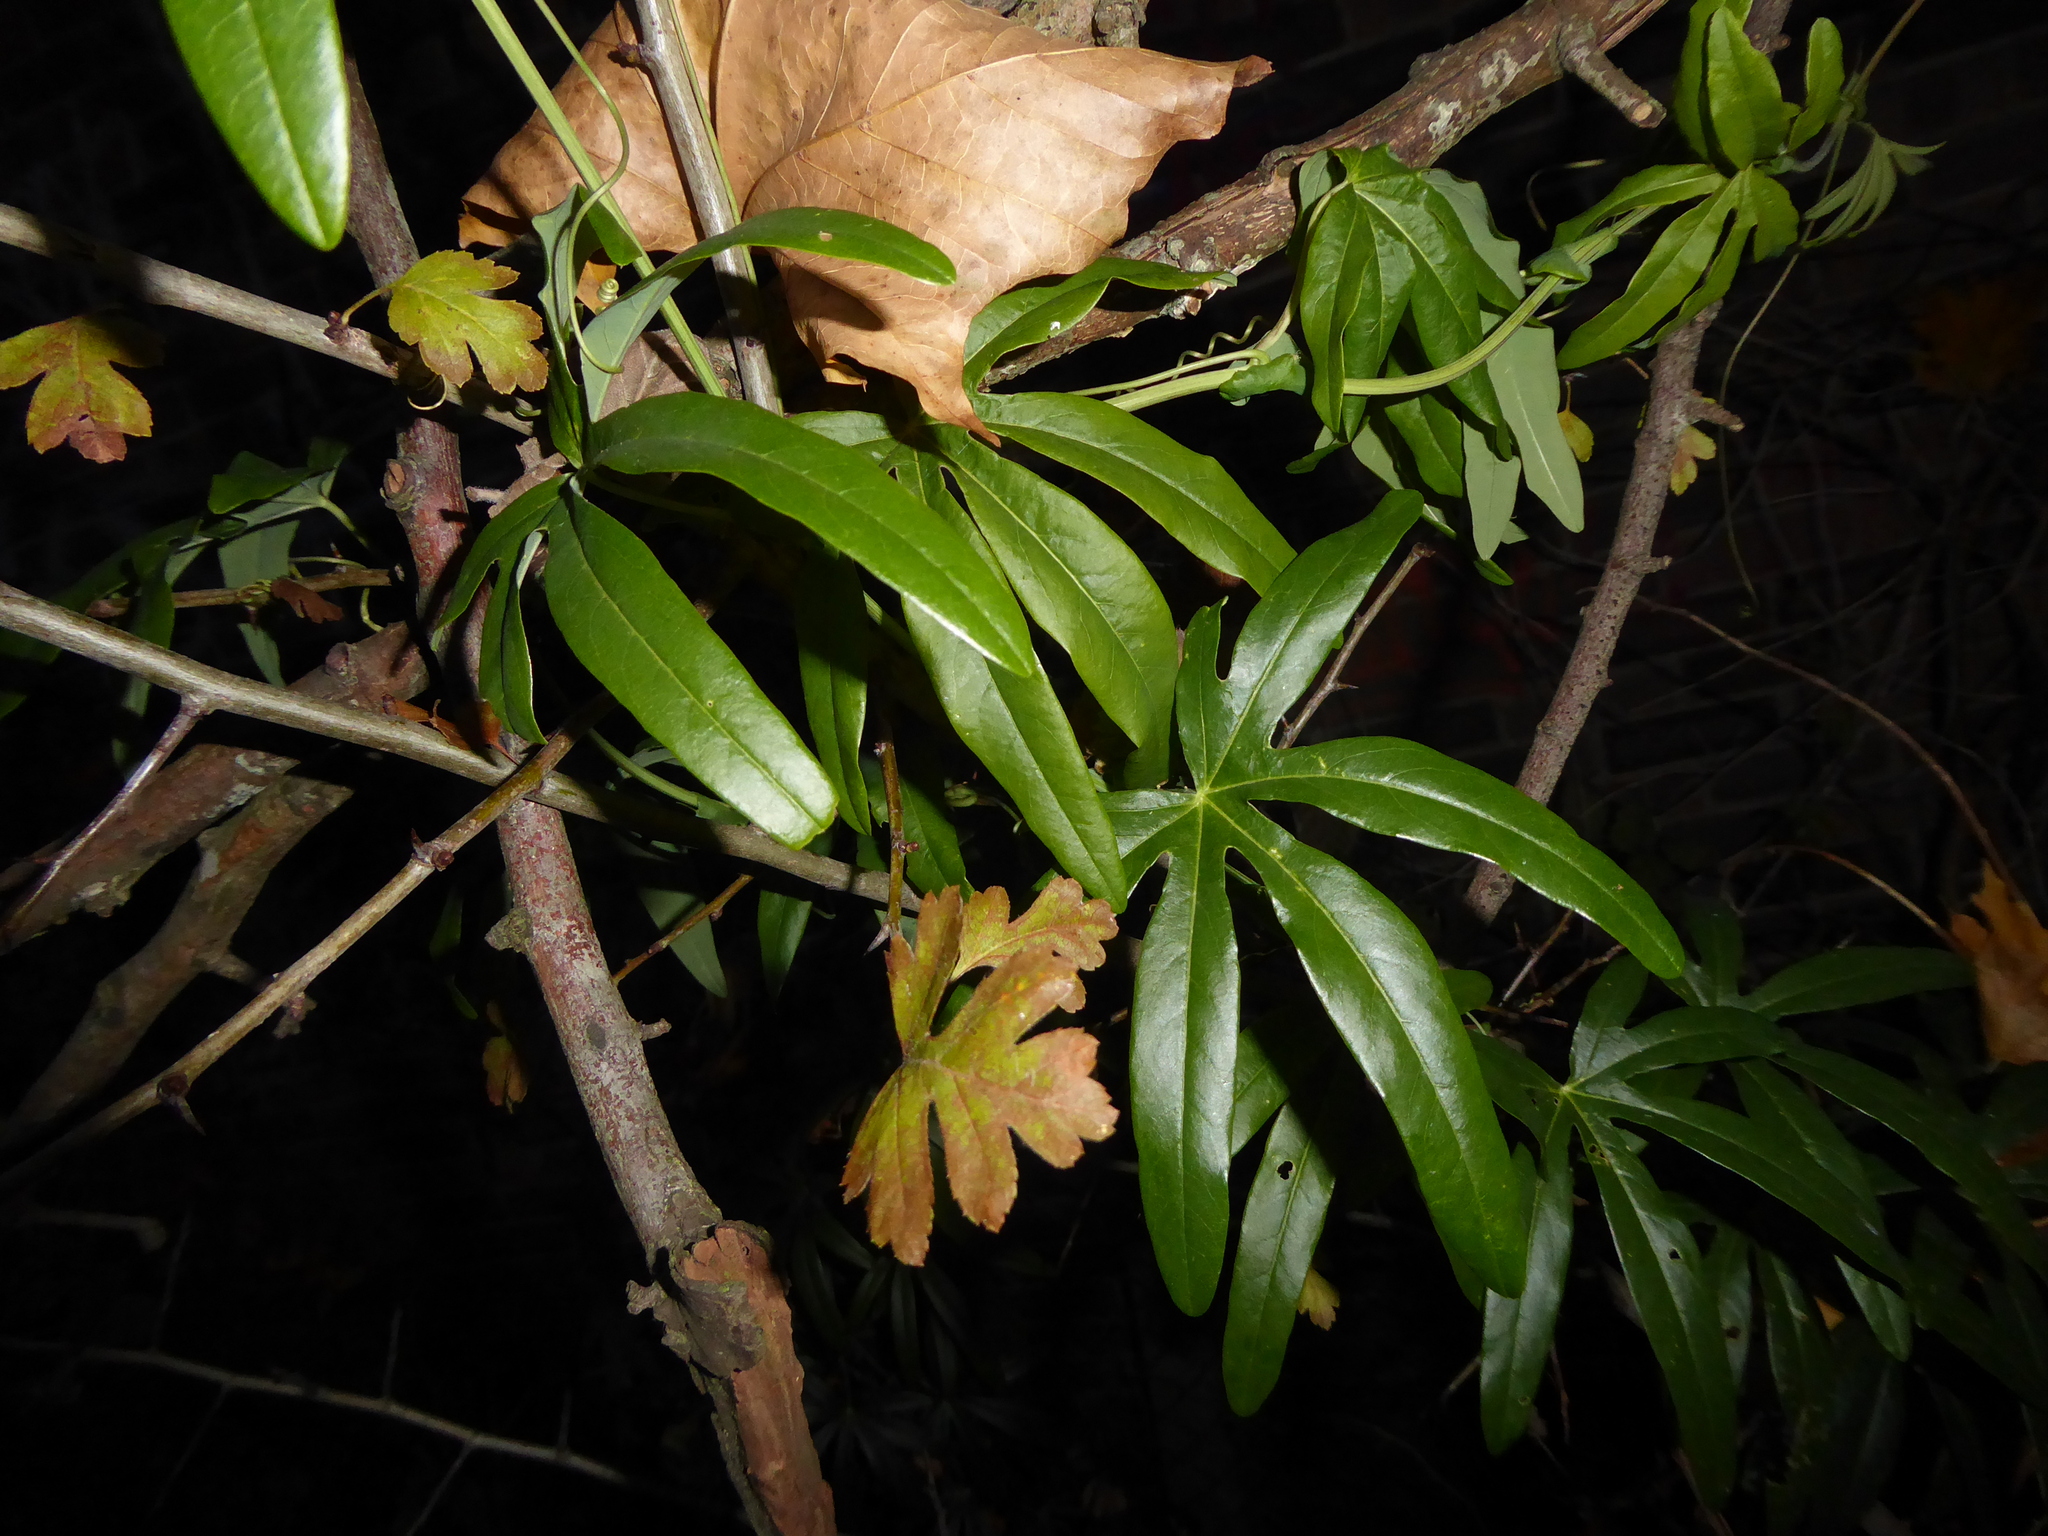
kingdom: Plantae
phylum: Tracheophyta
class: Magnoliopsida
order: Malpighiales
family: Passifloraceae
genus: Passiflora
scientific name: Passiflora caerulea
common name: Blue passionflower
